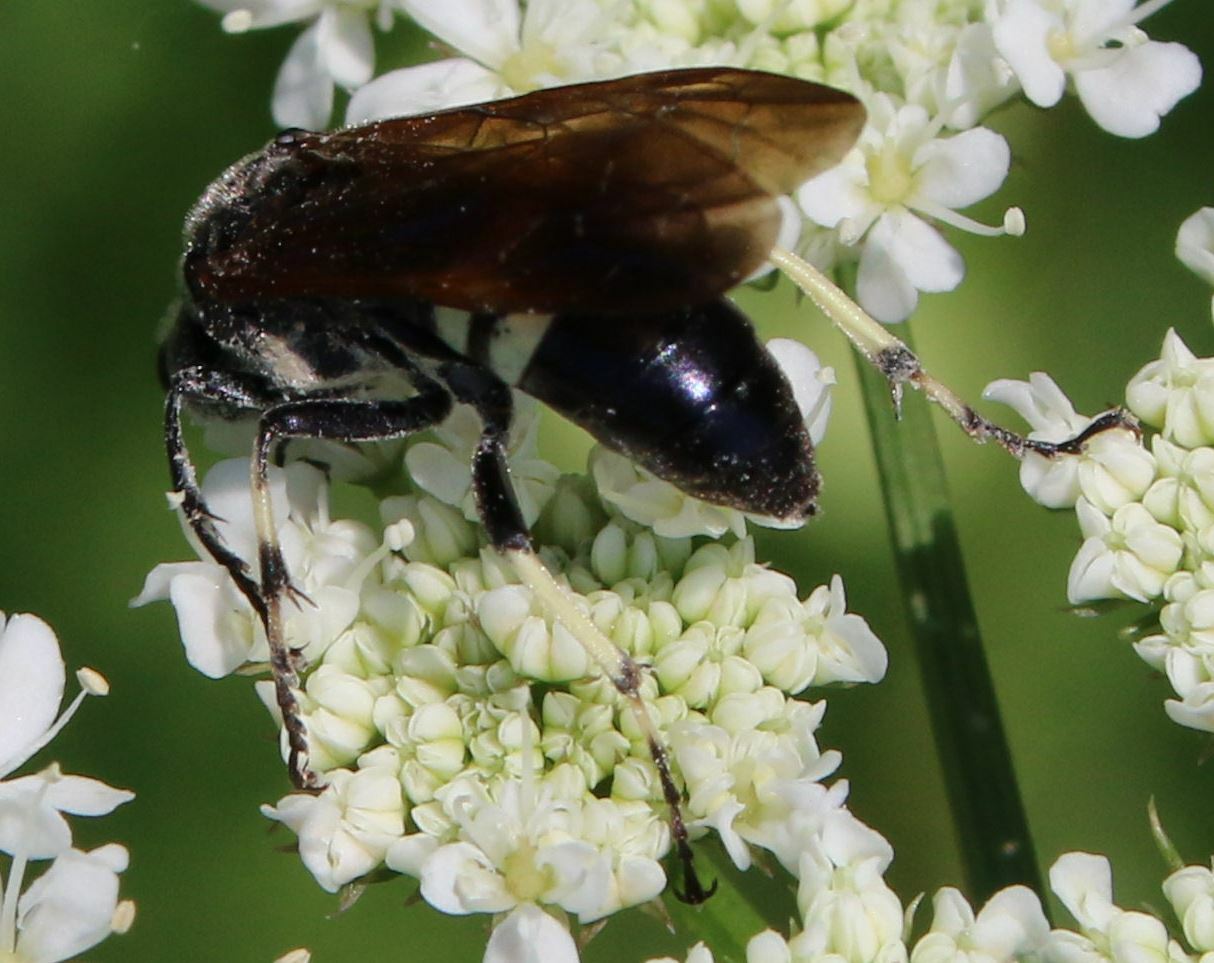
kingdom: Animalia
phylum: Arthropoda
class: Insecta
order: Hymenoptera
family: Tenthredinidae
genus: Tenthredo
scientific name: Tenthredo bifasciata
